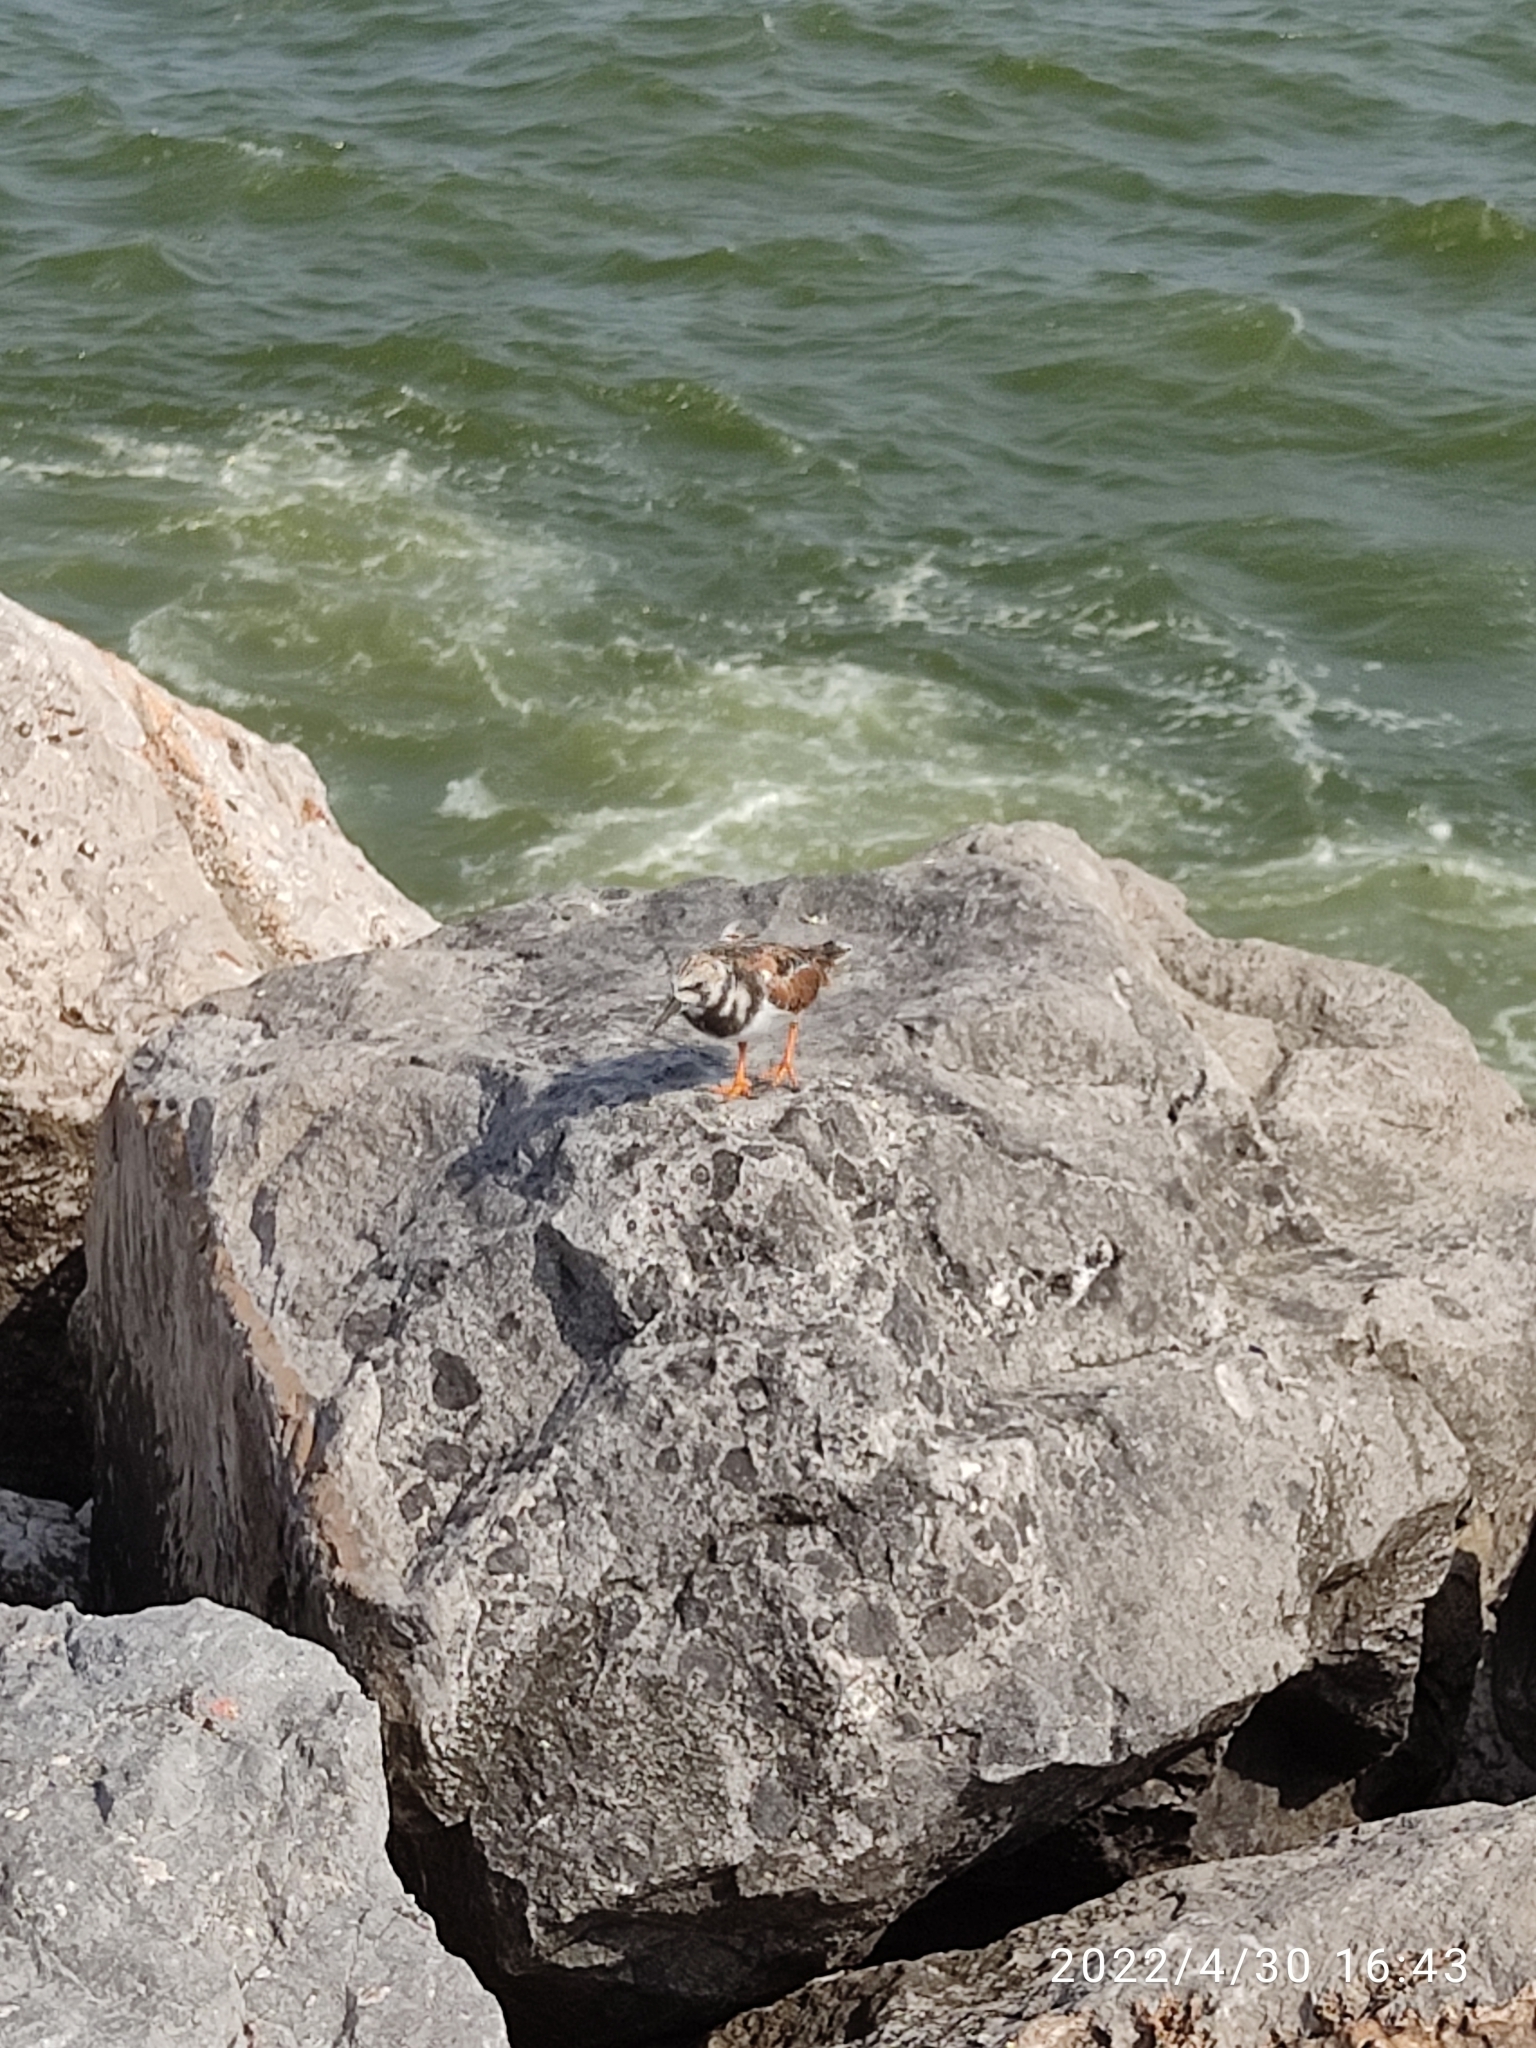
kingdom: Animalia
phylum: Chordata
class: Aves
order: Charadriiformes
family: Scolopacidae
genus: Arenaria
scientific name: Arenaria interpres
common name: Ruddy turnstone
